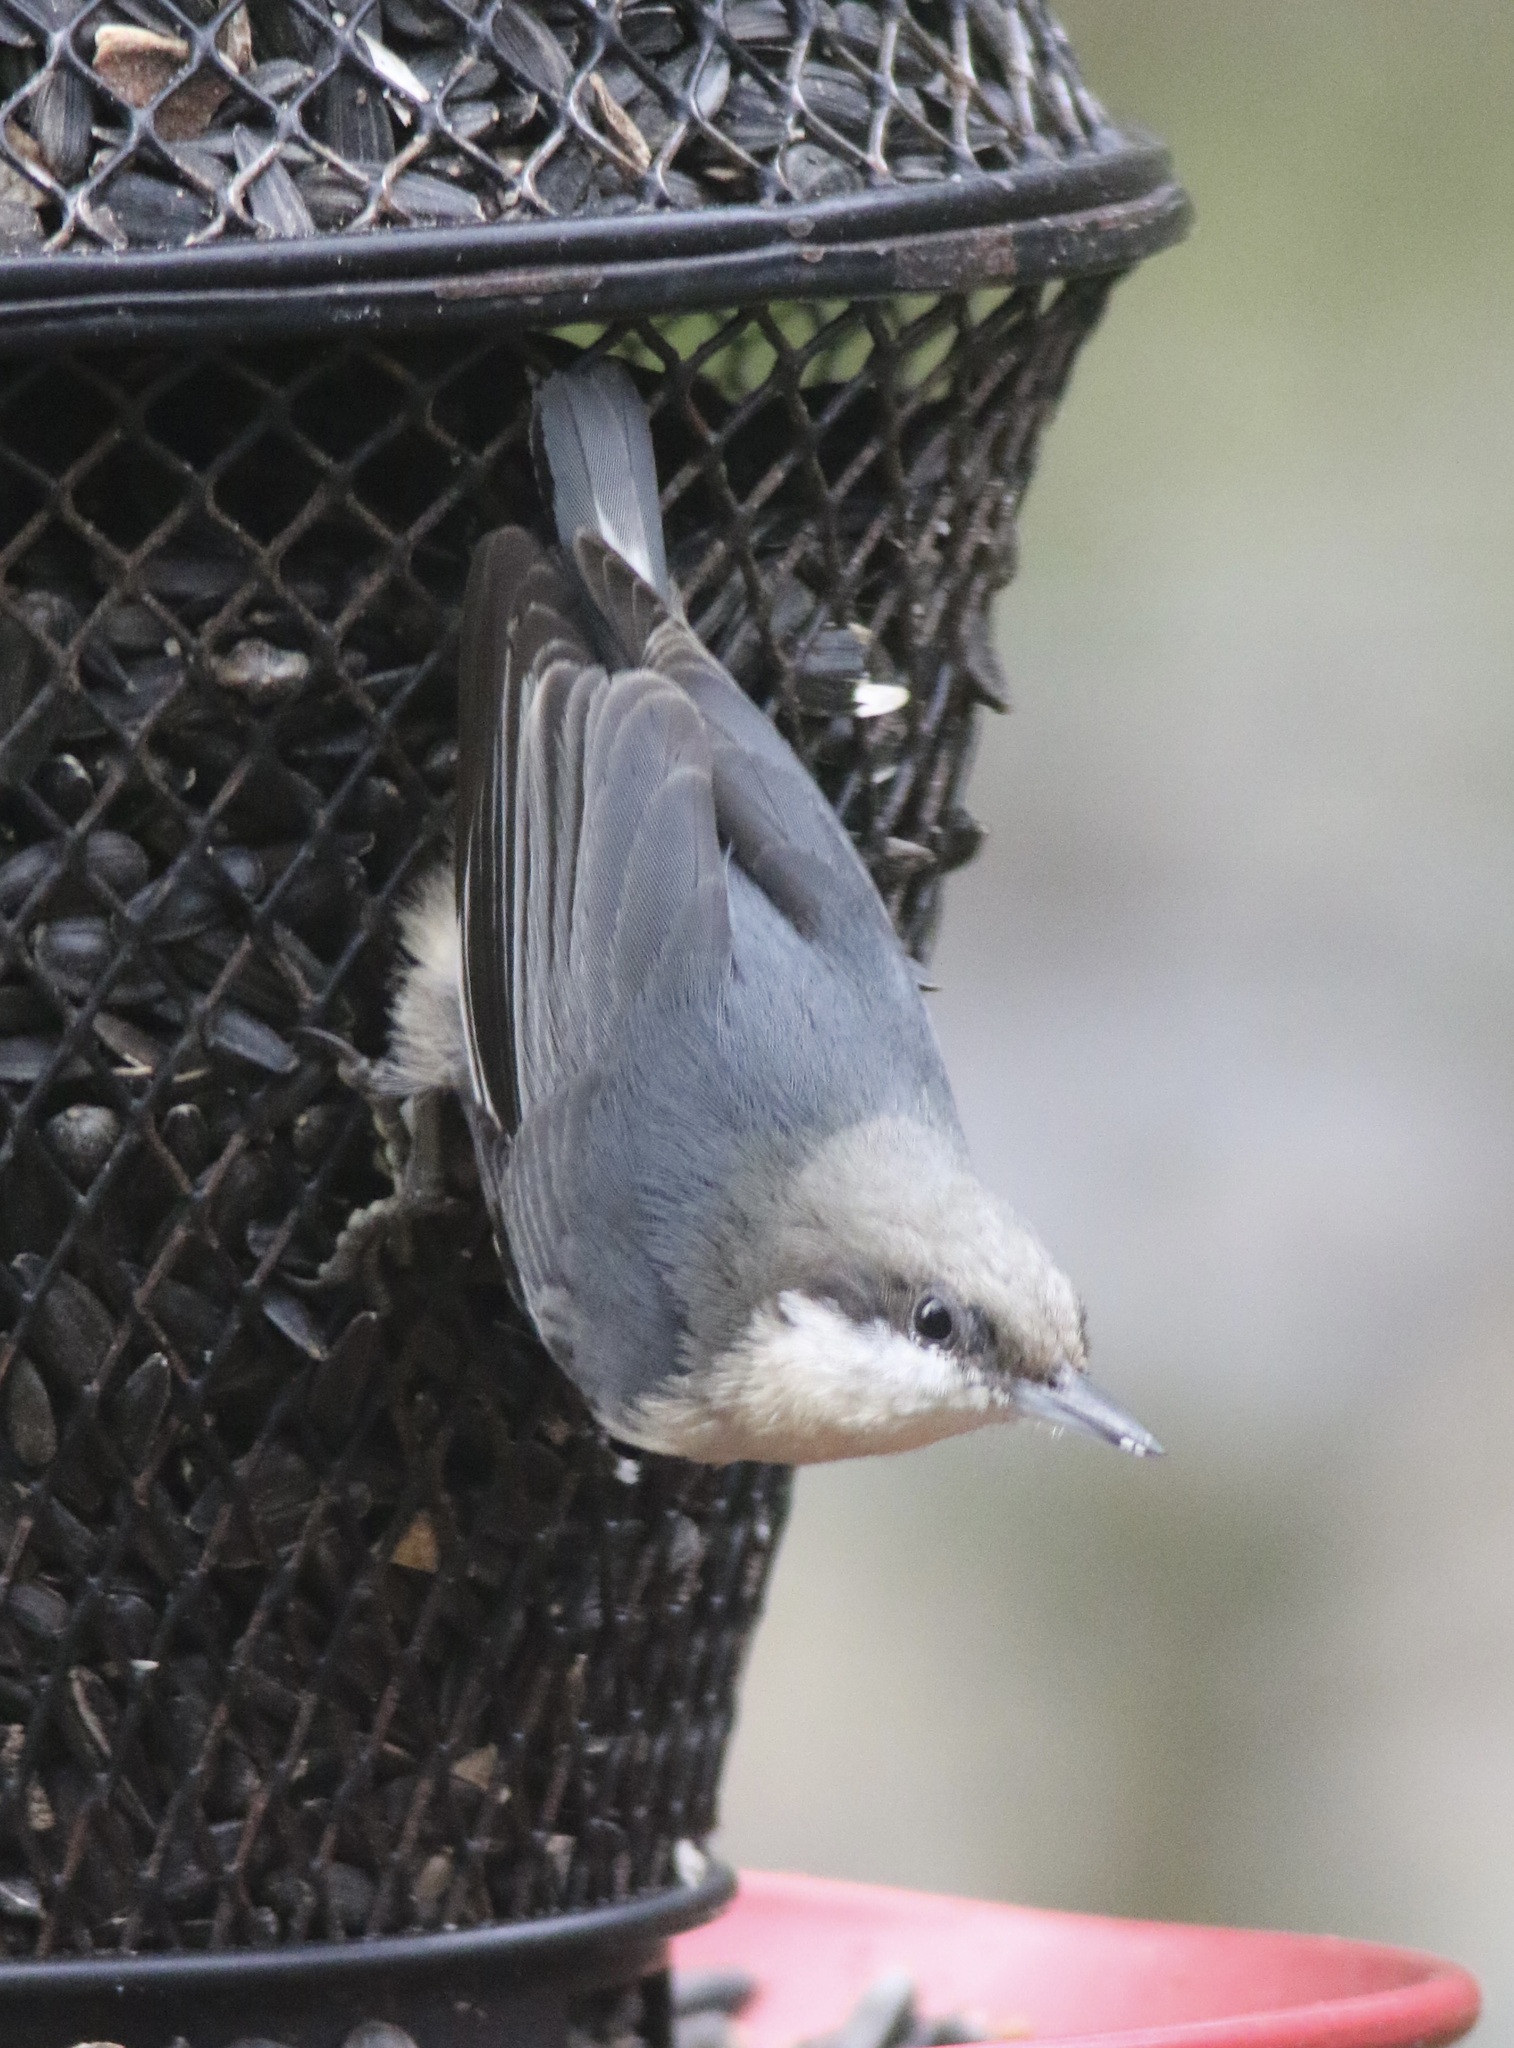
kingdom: Animalia
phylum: Chordata
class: Aves
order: Passeriformes
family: Sittidae
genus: Sitta
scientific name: Sitta pygmaea
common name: Pygmy nuthatch
